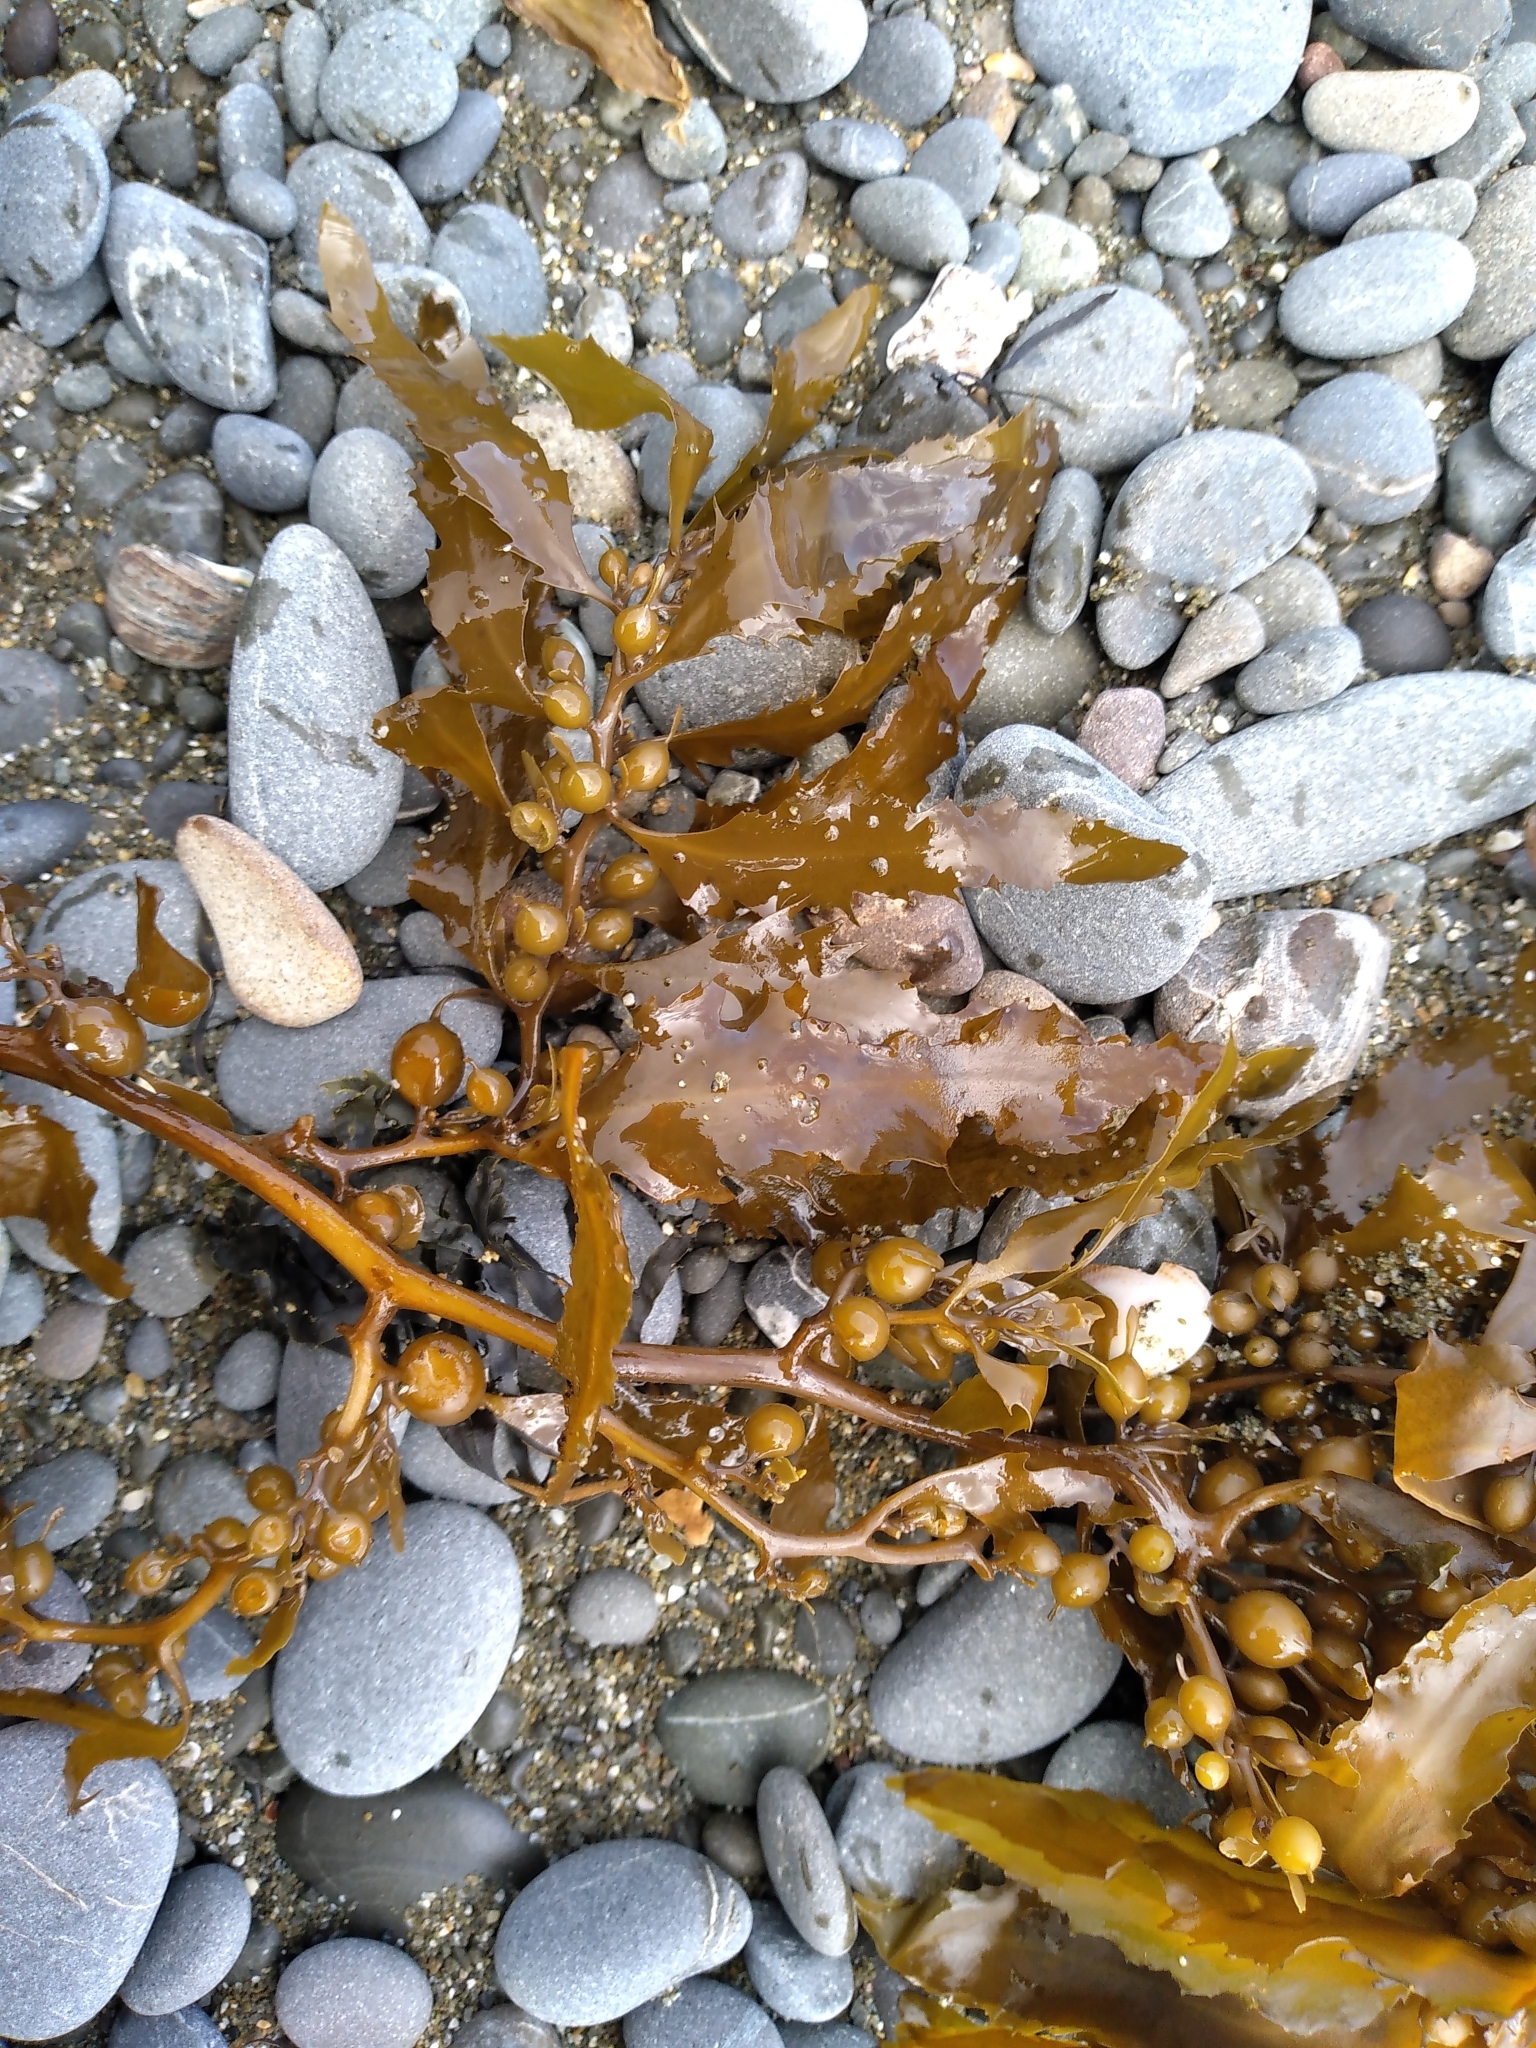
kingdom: Chromista
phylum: Ochrophyta
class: Phaeophyceae
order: Fucales
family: Sargassaceae
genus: Sargassum
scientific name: Sargassum sinclairii
